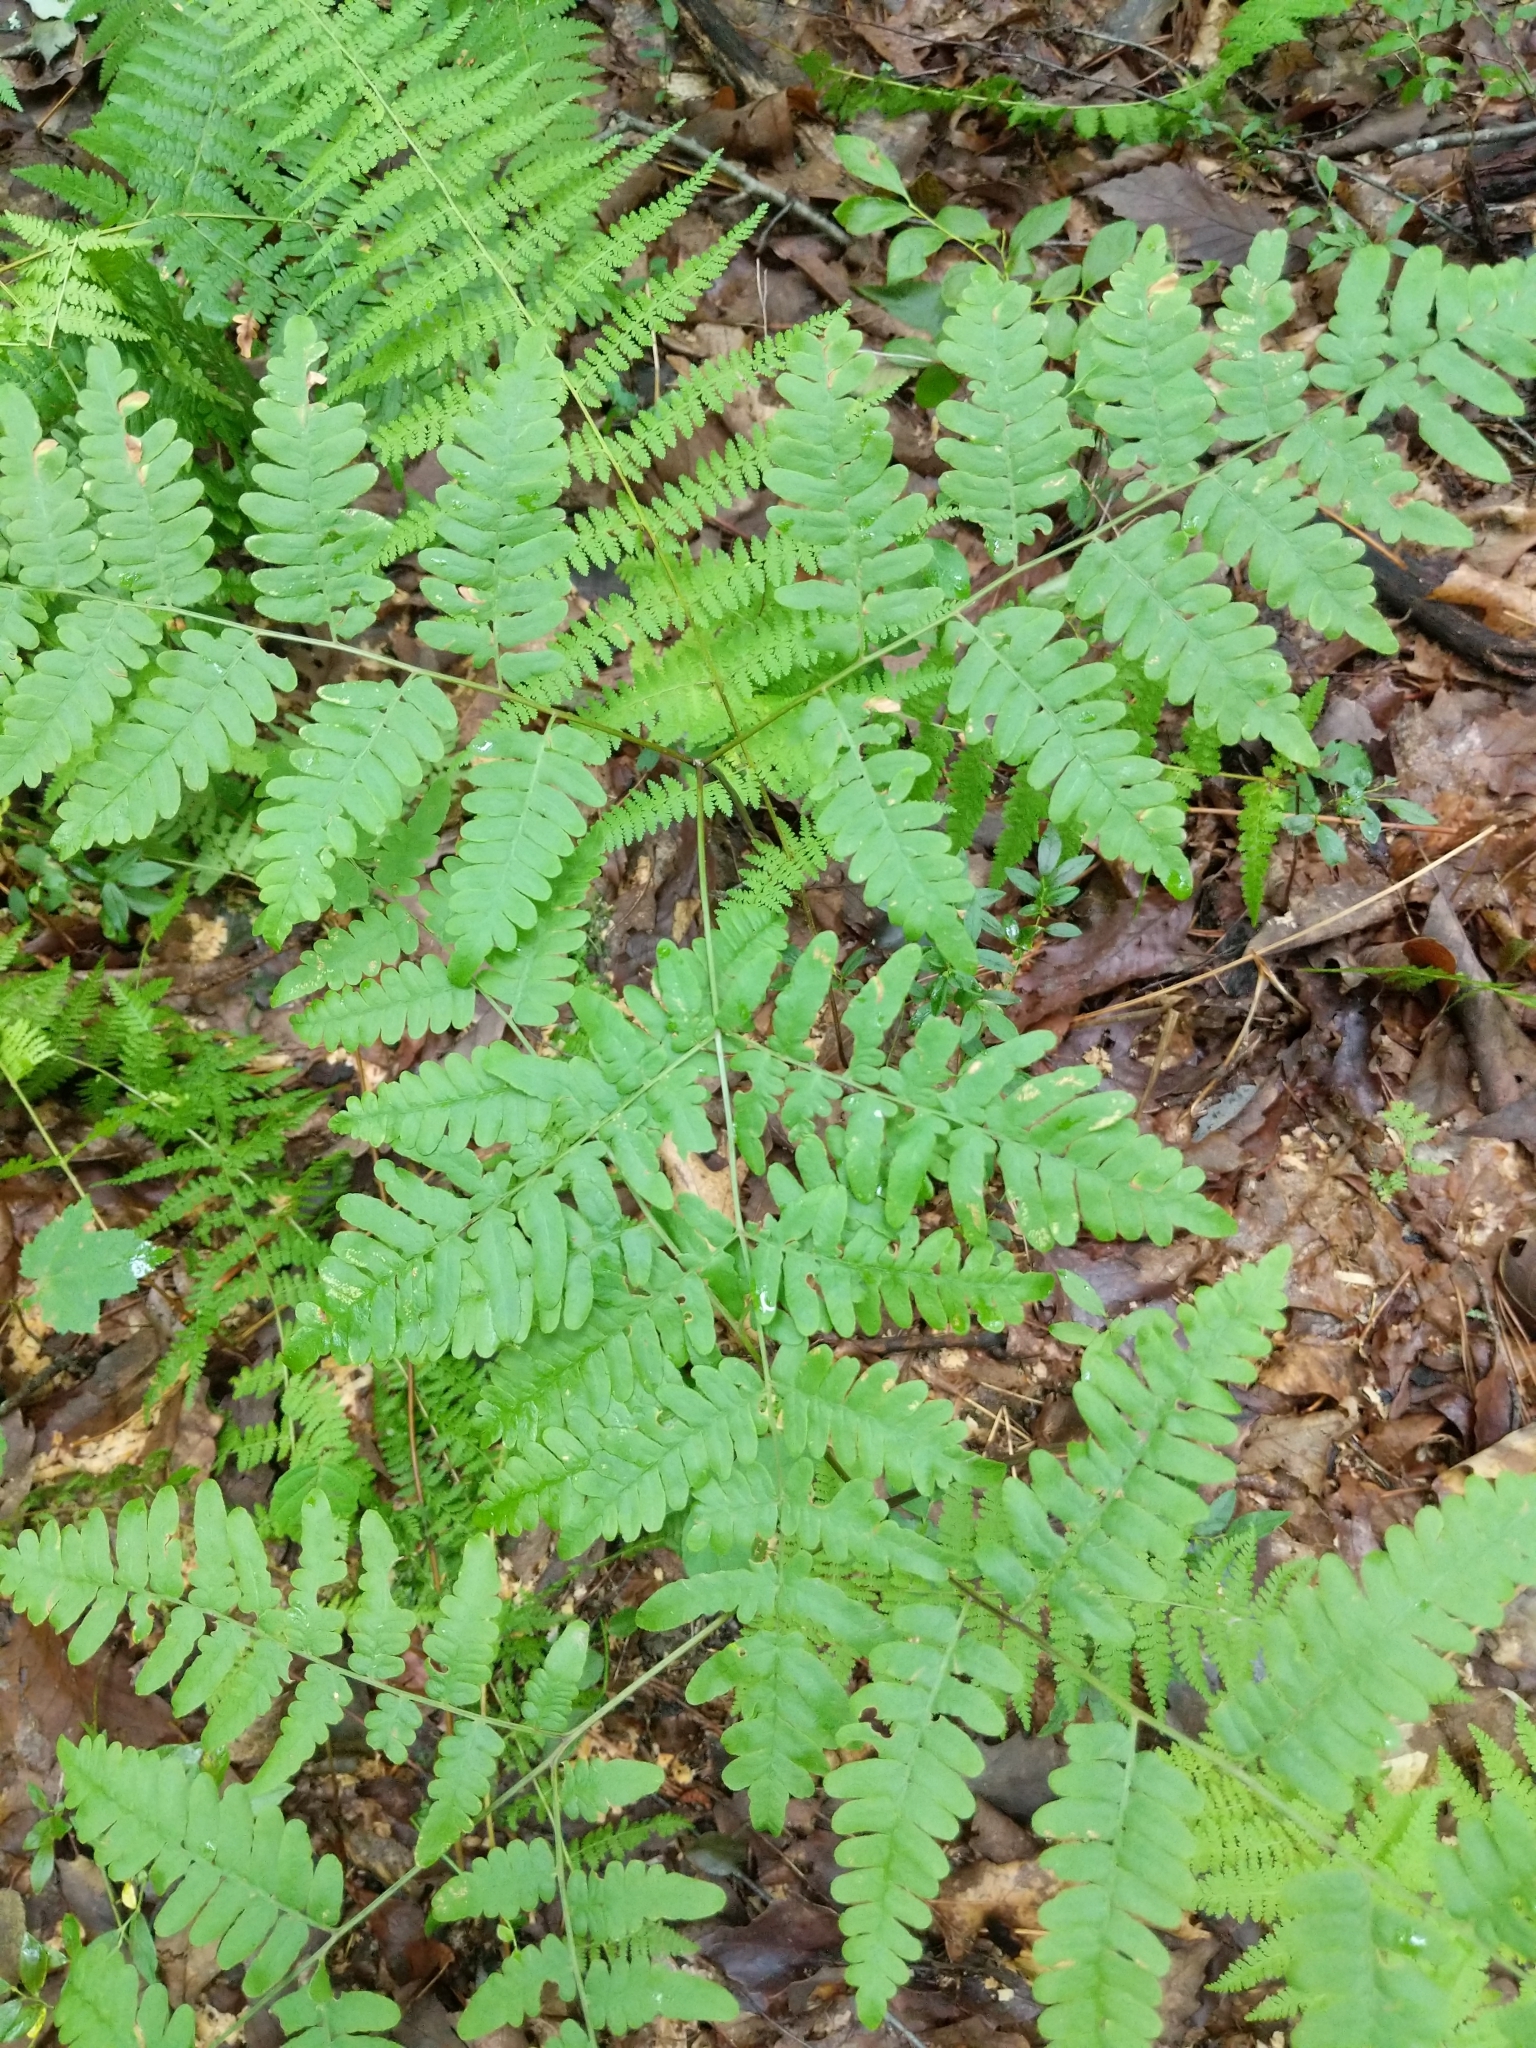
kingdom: Plantae
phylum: Tracheophyta
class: Polypodiopsida
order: Polypodiales
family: Dennstaedtiaceae
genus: Pteridium
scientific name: Pteridium aquilinum
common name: Bracken
